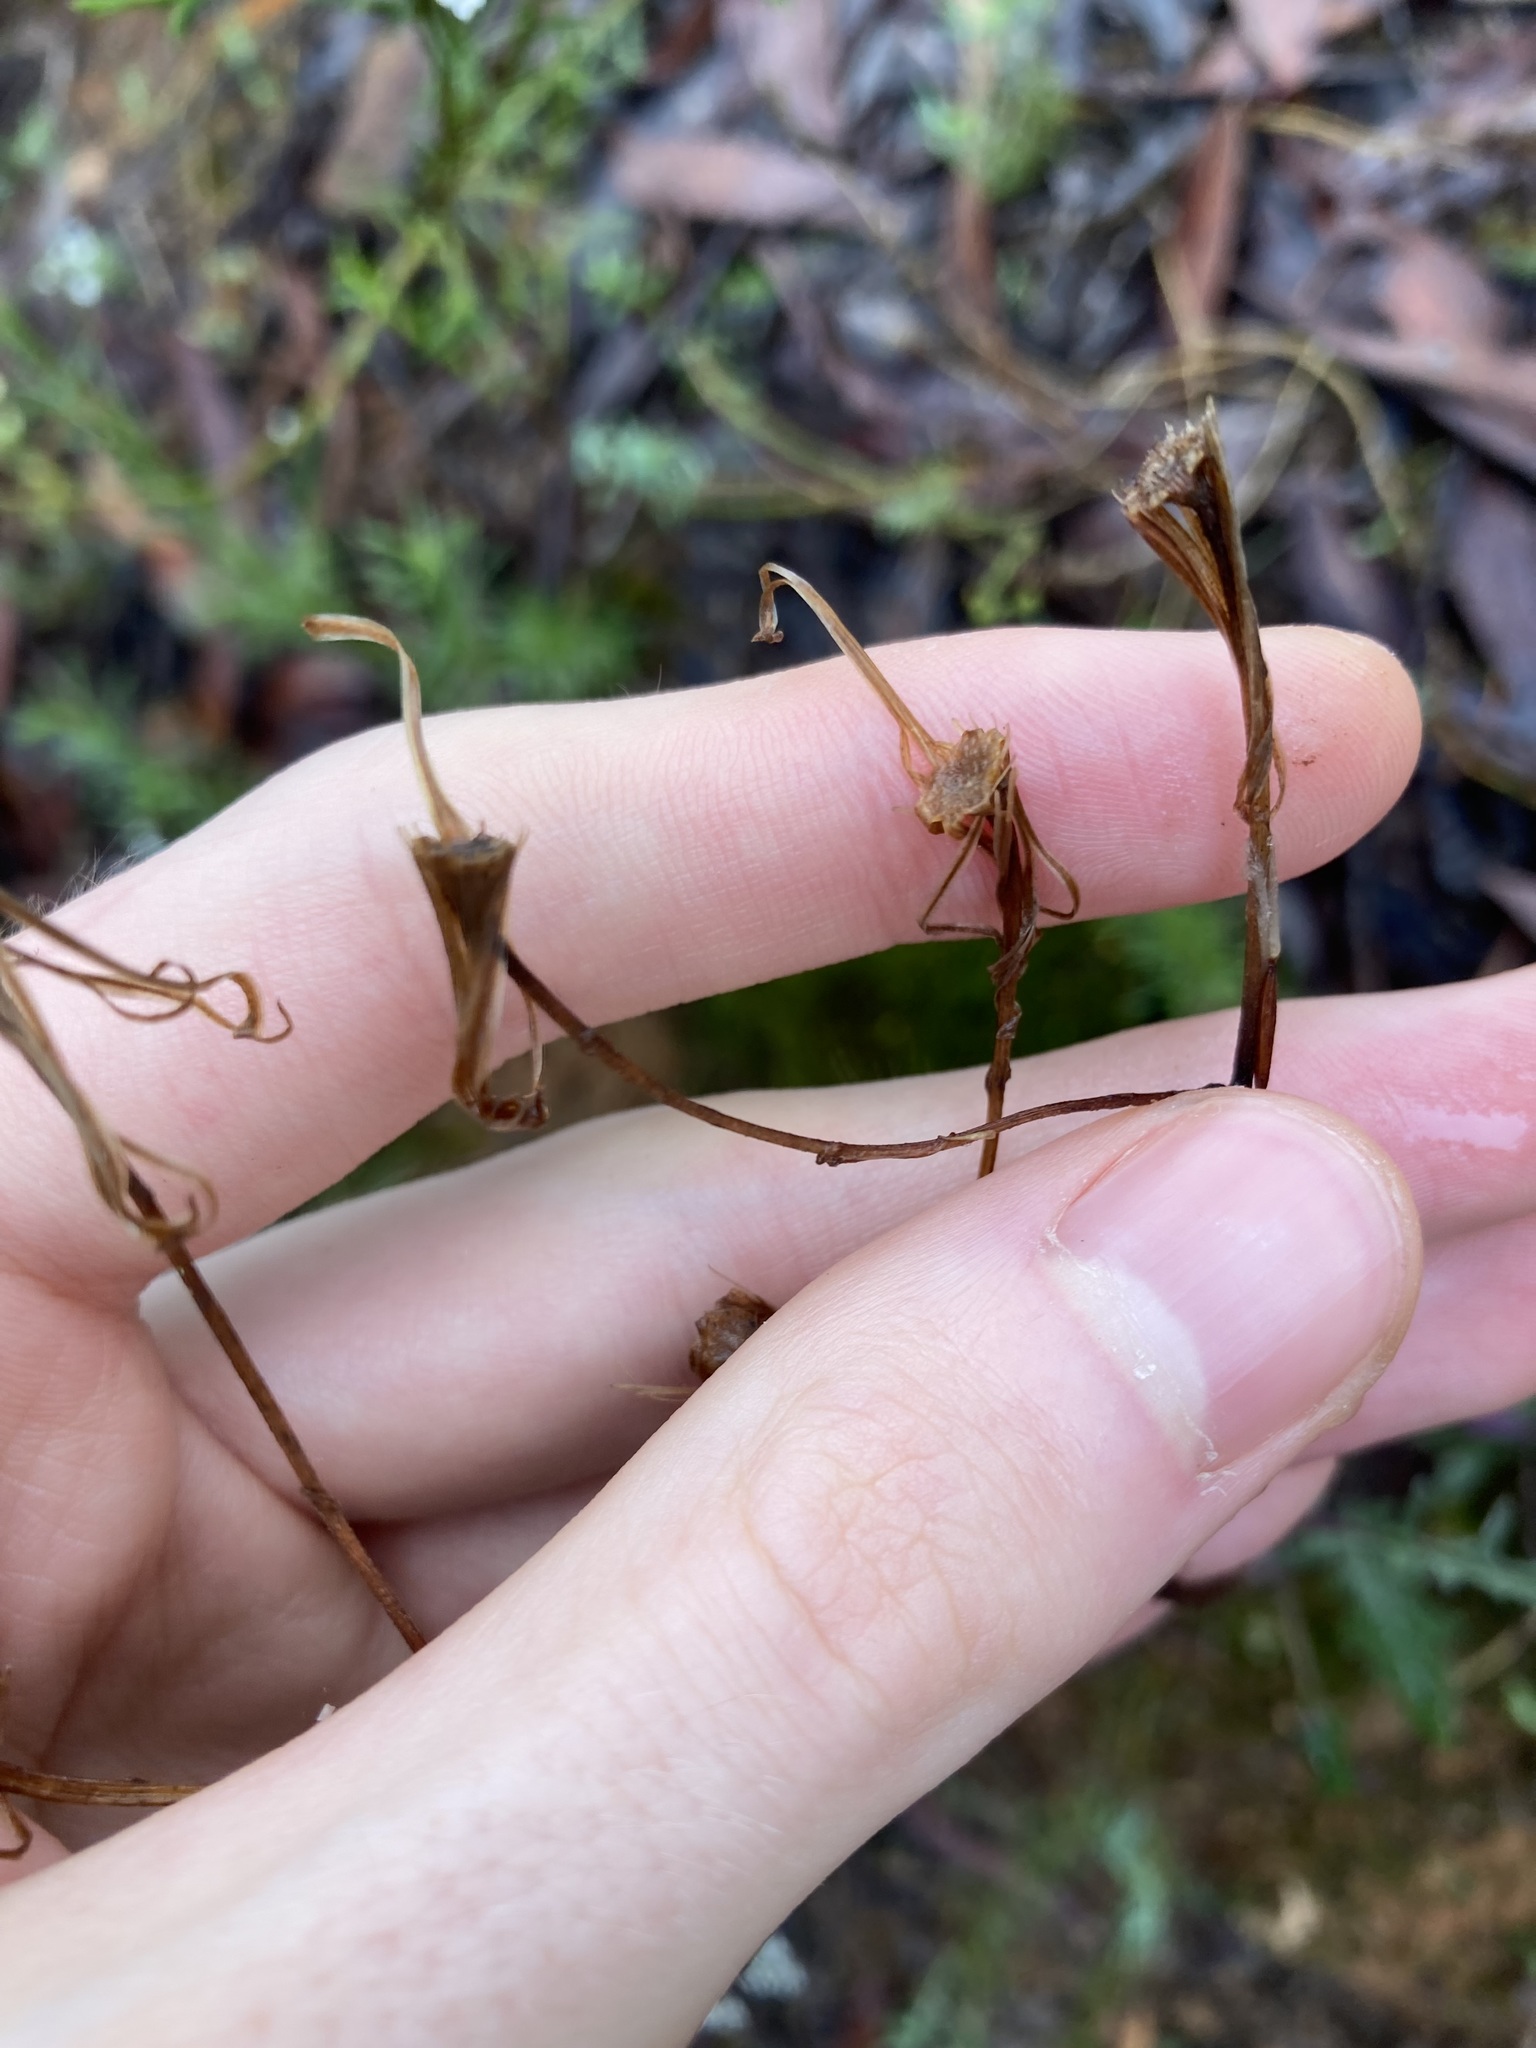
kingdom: Plantae
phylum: Tracheophyta
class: Magnoliopsida
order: Asterales
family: Asteraceae
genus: Arrhenechthites
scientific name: Arrhenechthites mixtus
